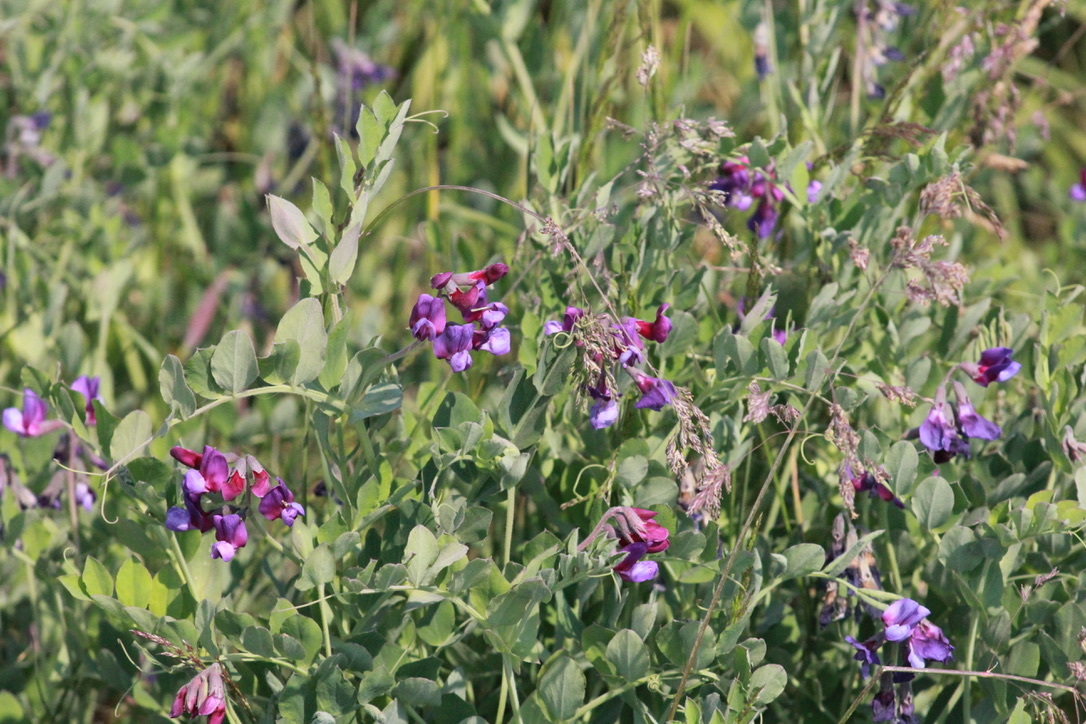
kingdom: Plantae
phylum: Tracheophyta
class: Magnoliopsida
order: Fabales
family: Fabaceae
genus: Lathyrus
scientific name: Lathyrus japonicus
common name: Sea pea
